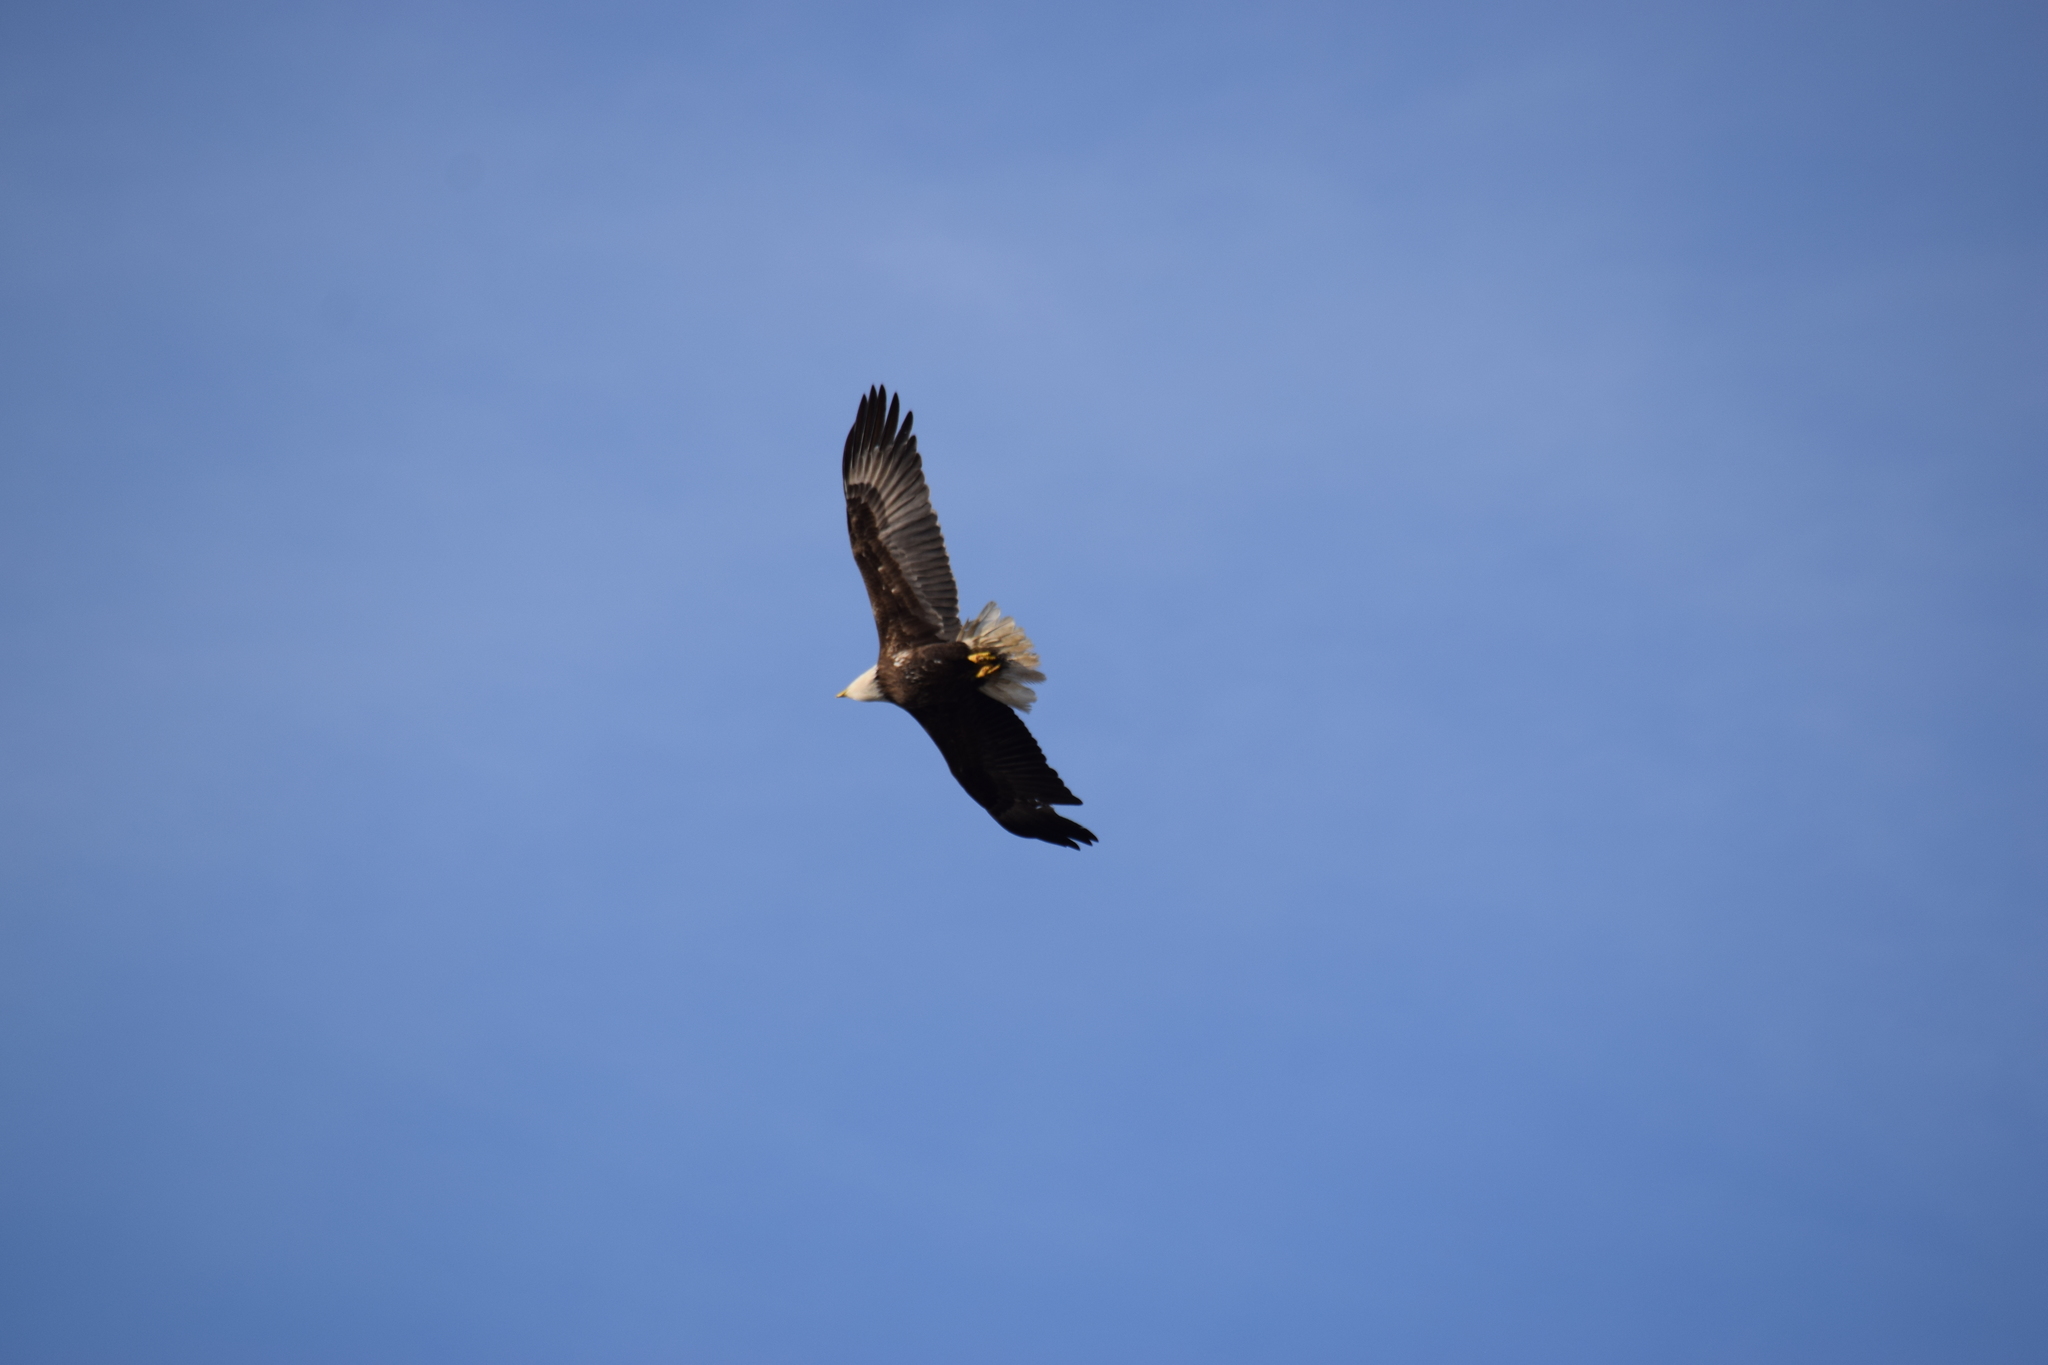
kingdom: Animalia
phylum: Chordata
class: Aves
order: Accipitriformes
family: Accipitridae
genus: Haliaeetus
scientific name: Haliaeetus leucocephalus
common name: Bald eagle
